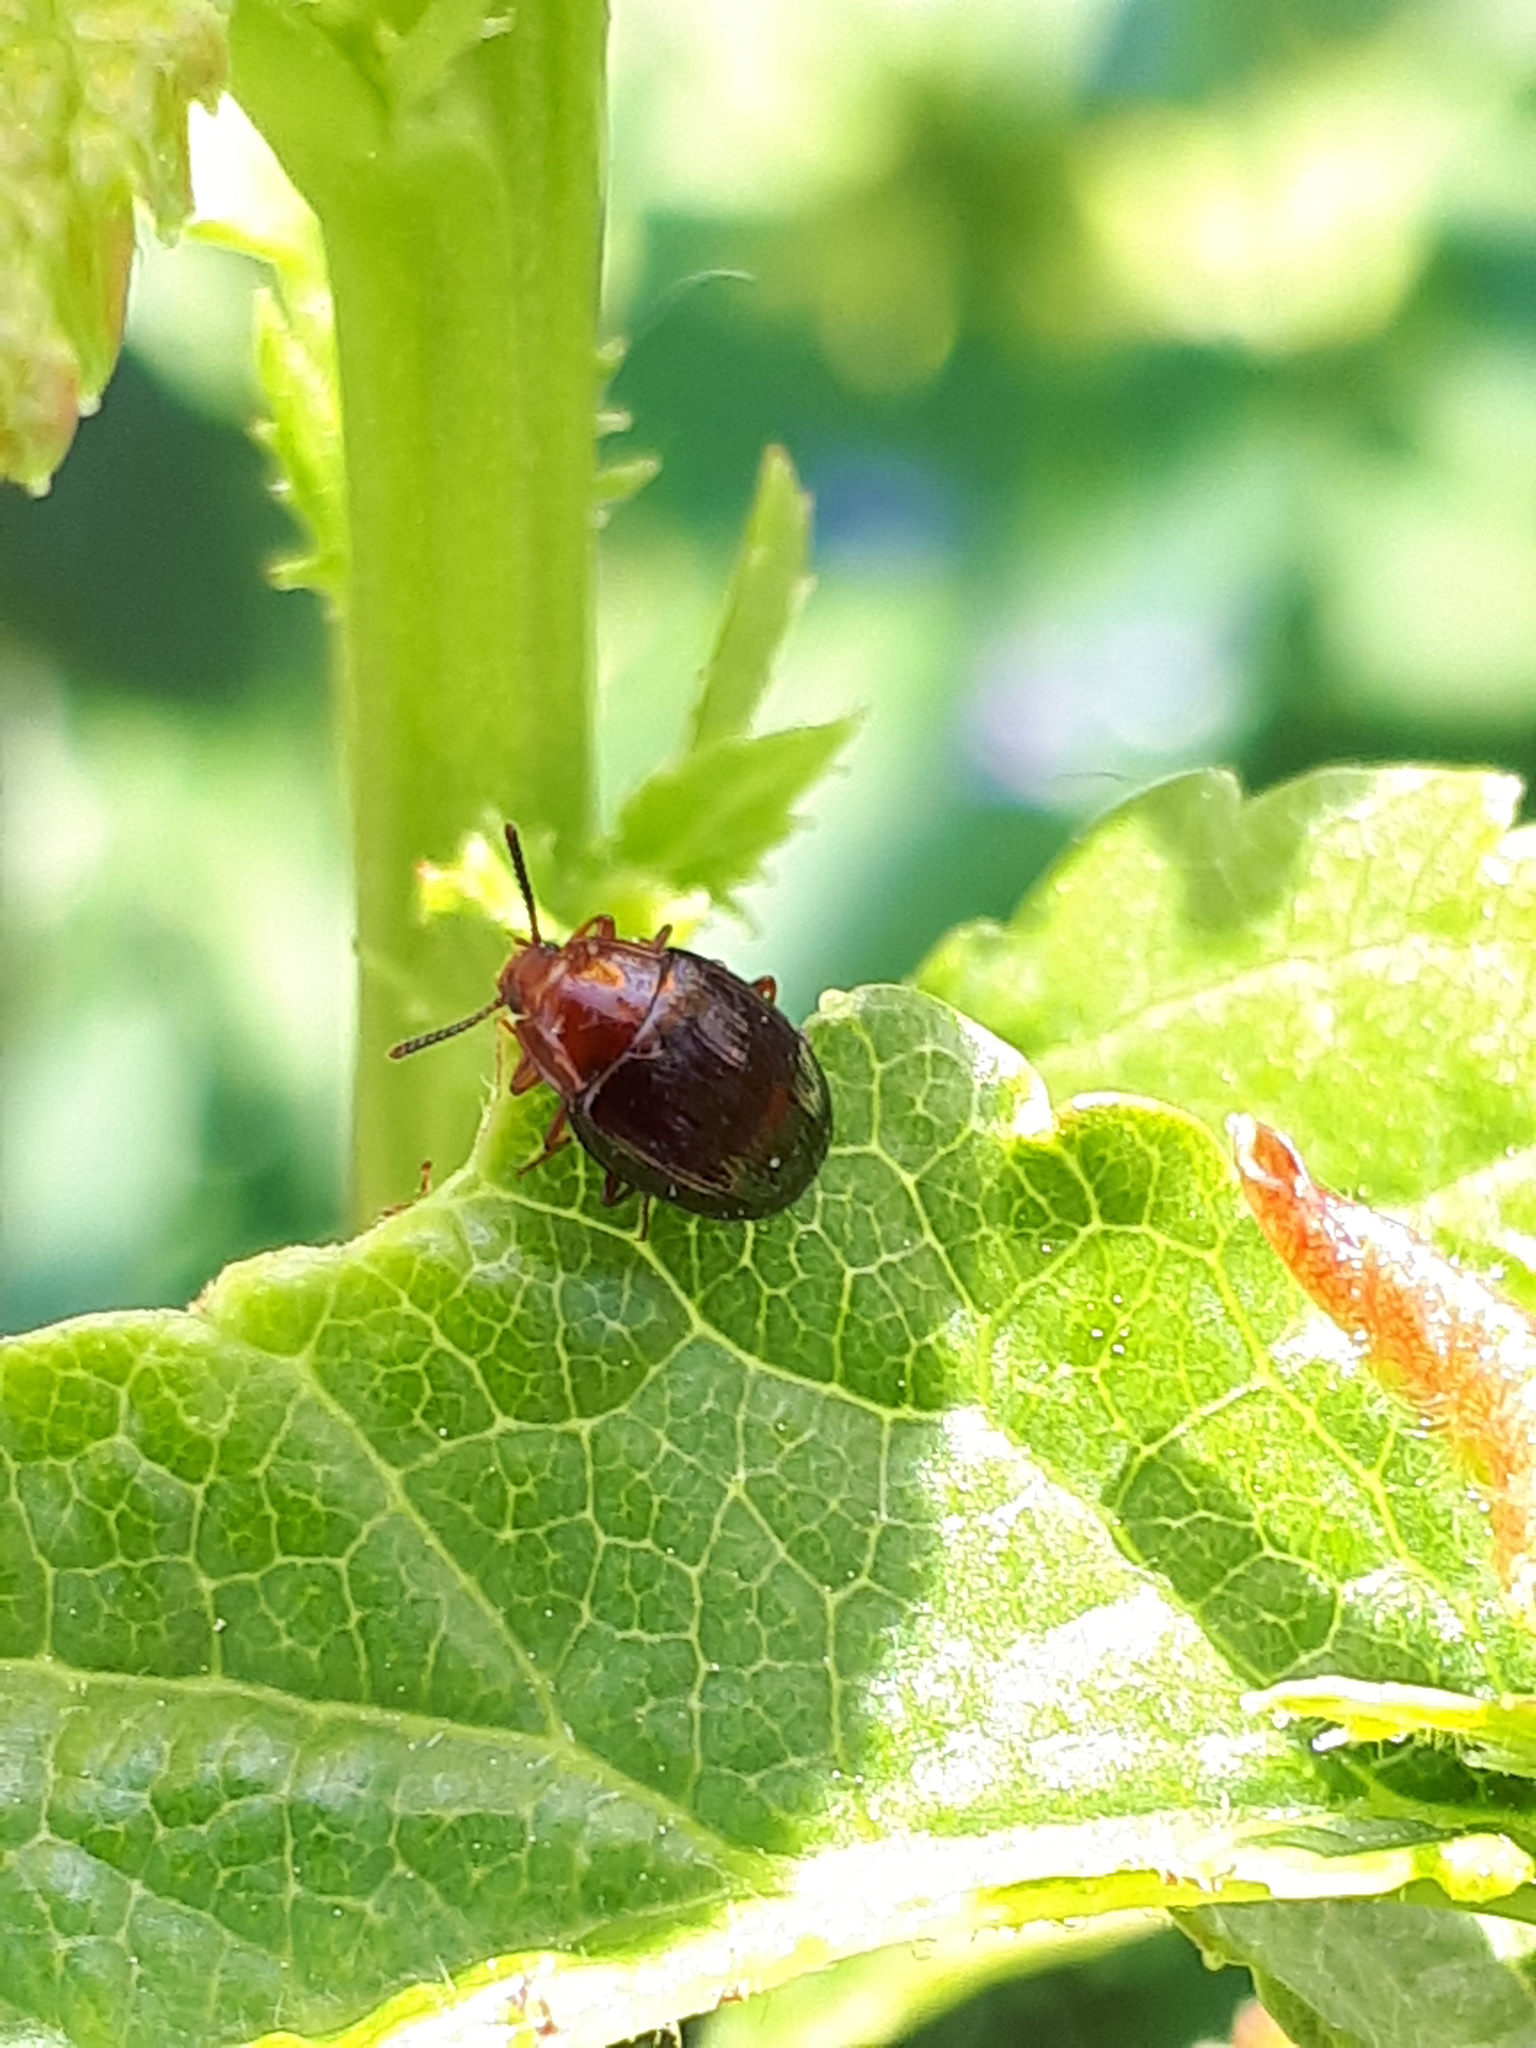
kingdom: Animalia
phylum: Arthropoda
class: Insecta
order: Coleoptera
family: Tenebrionidae
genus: Blapstinus
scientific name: Blapstinus metallicus
